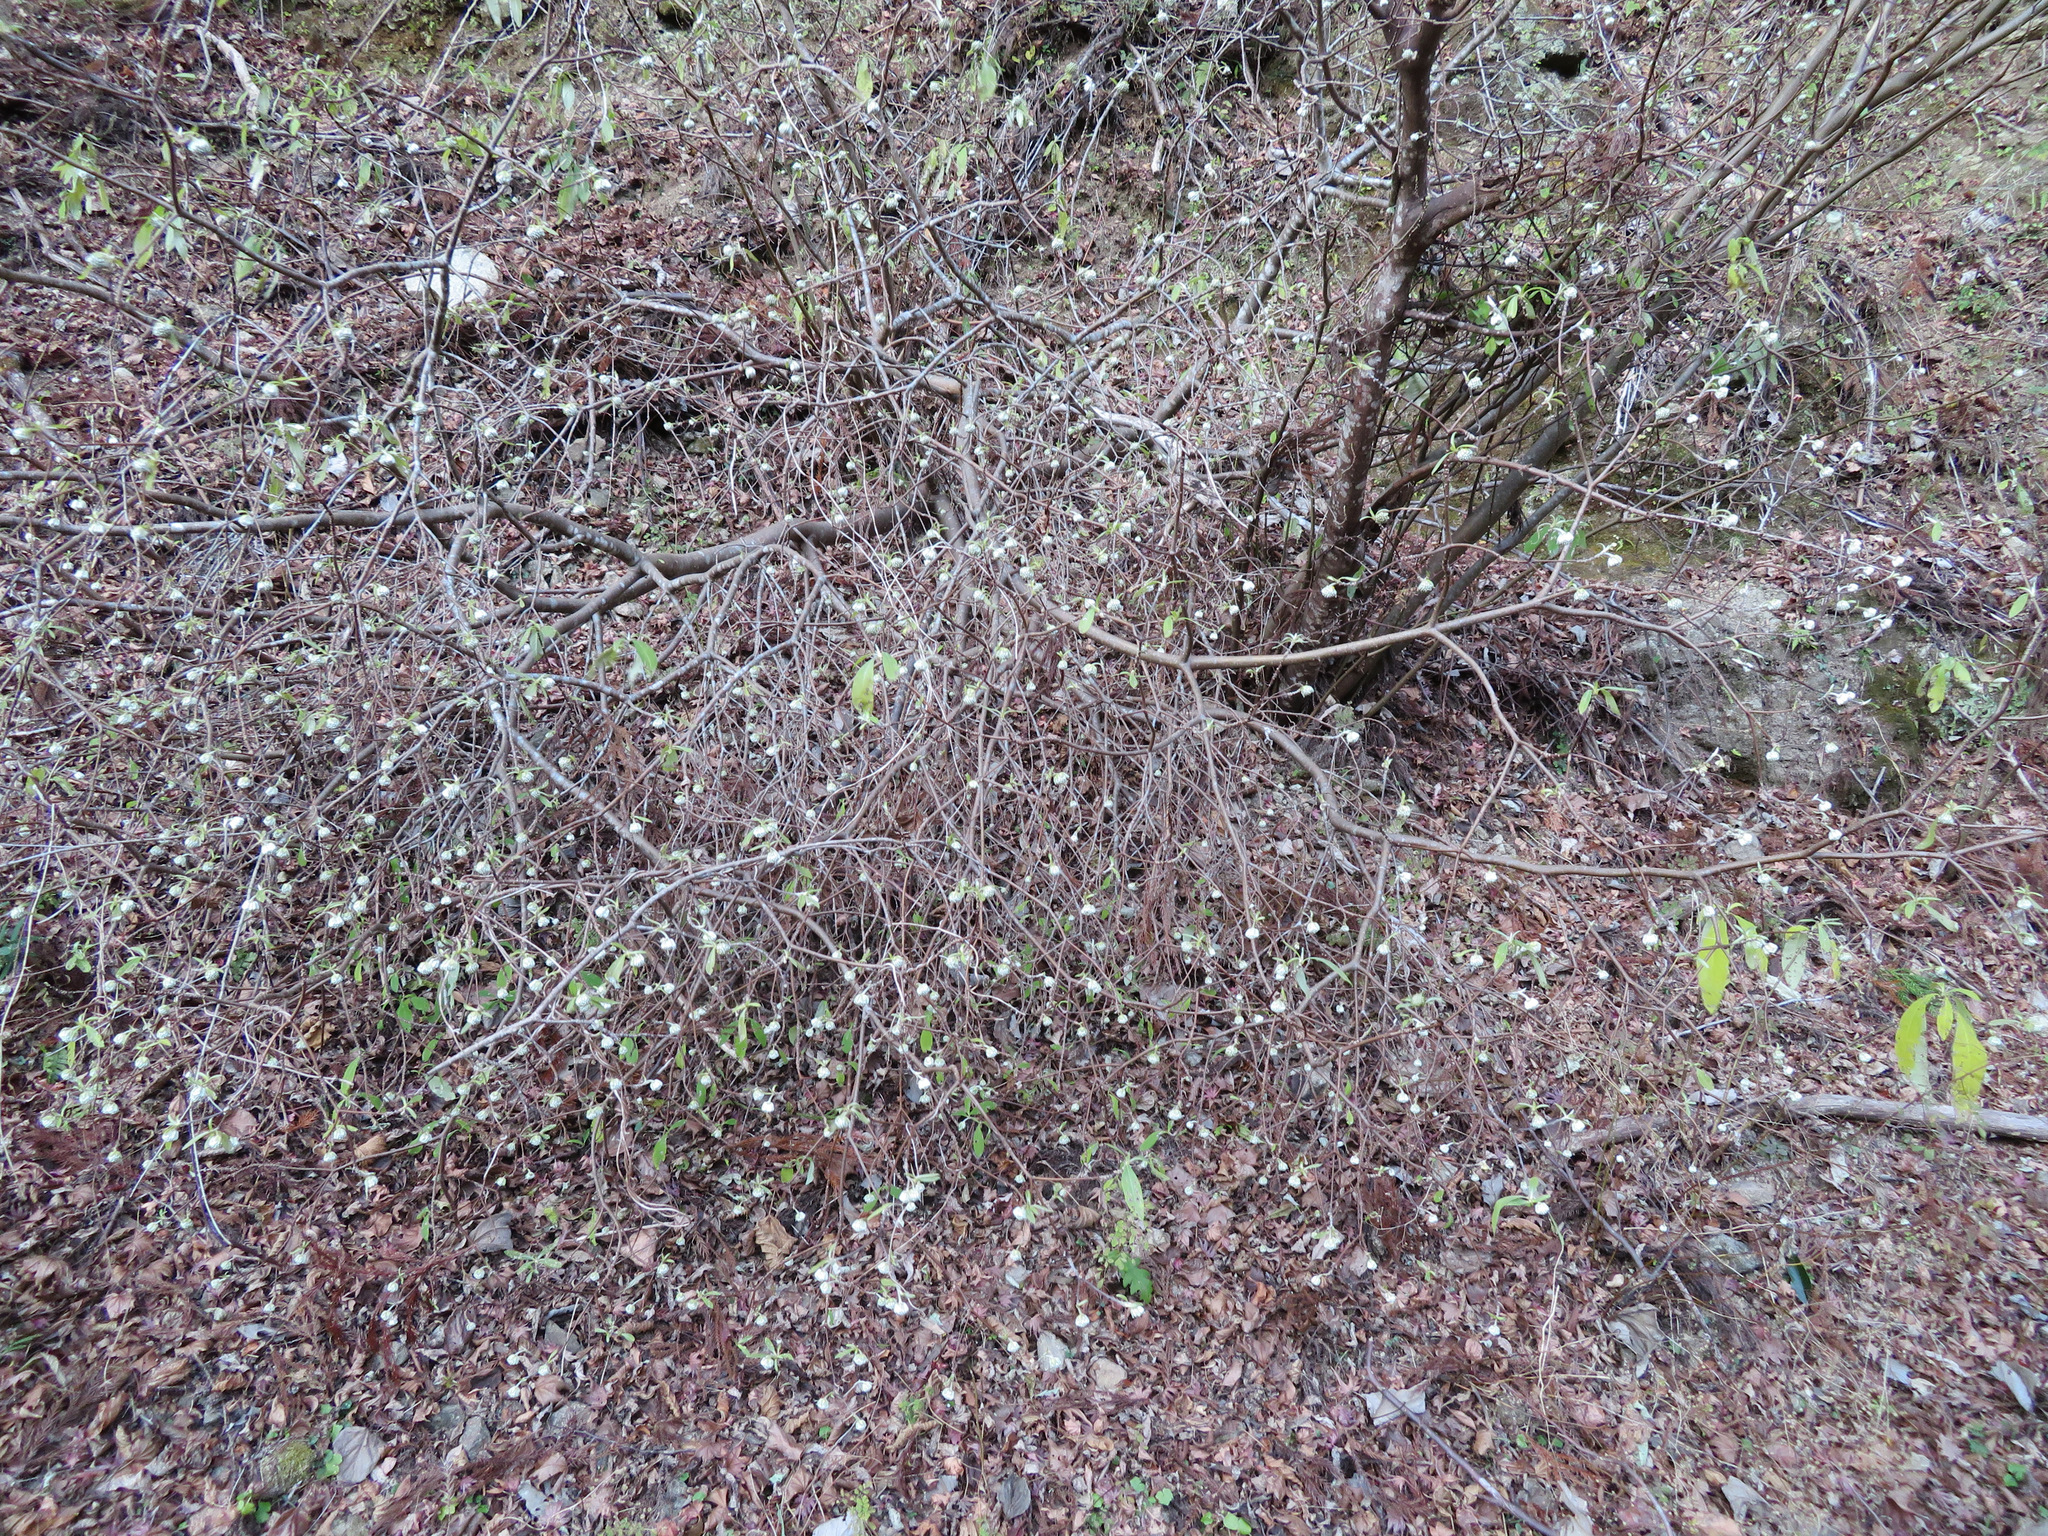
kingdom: Plantae
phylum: Tracheophyta
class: Magnoliopsida
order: Malvales
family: Thymelaeaceae
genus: Edgeworthia
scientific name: Edgeworthia chrysantha
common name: Oriental paperbush
